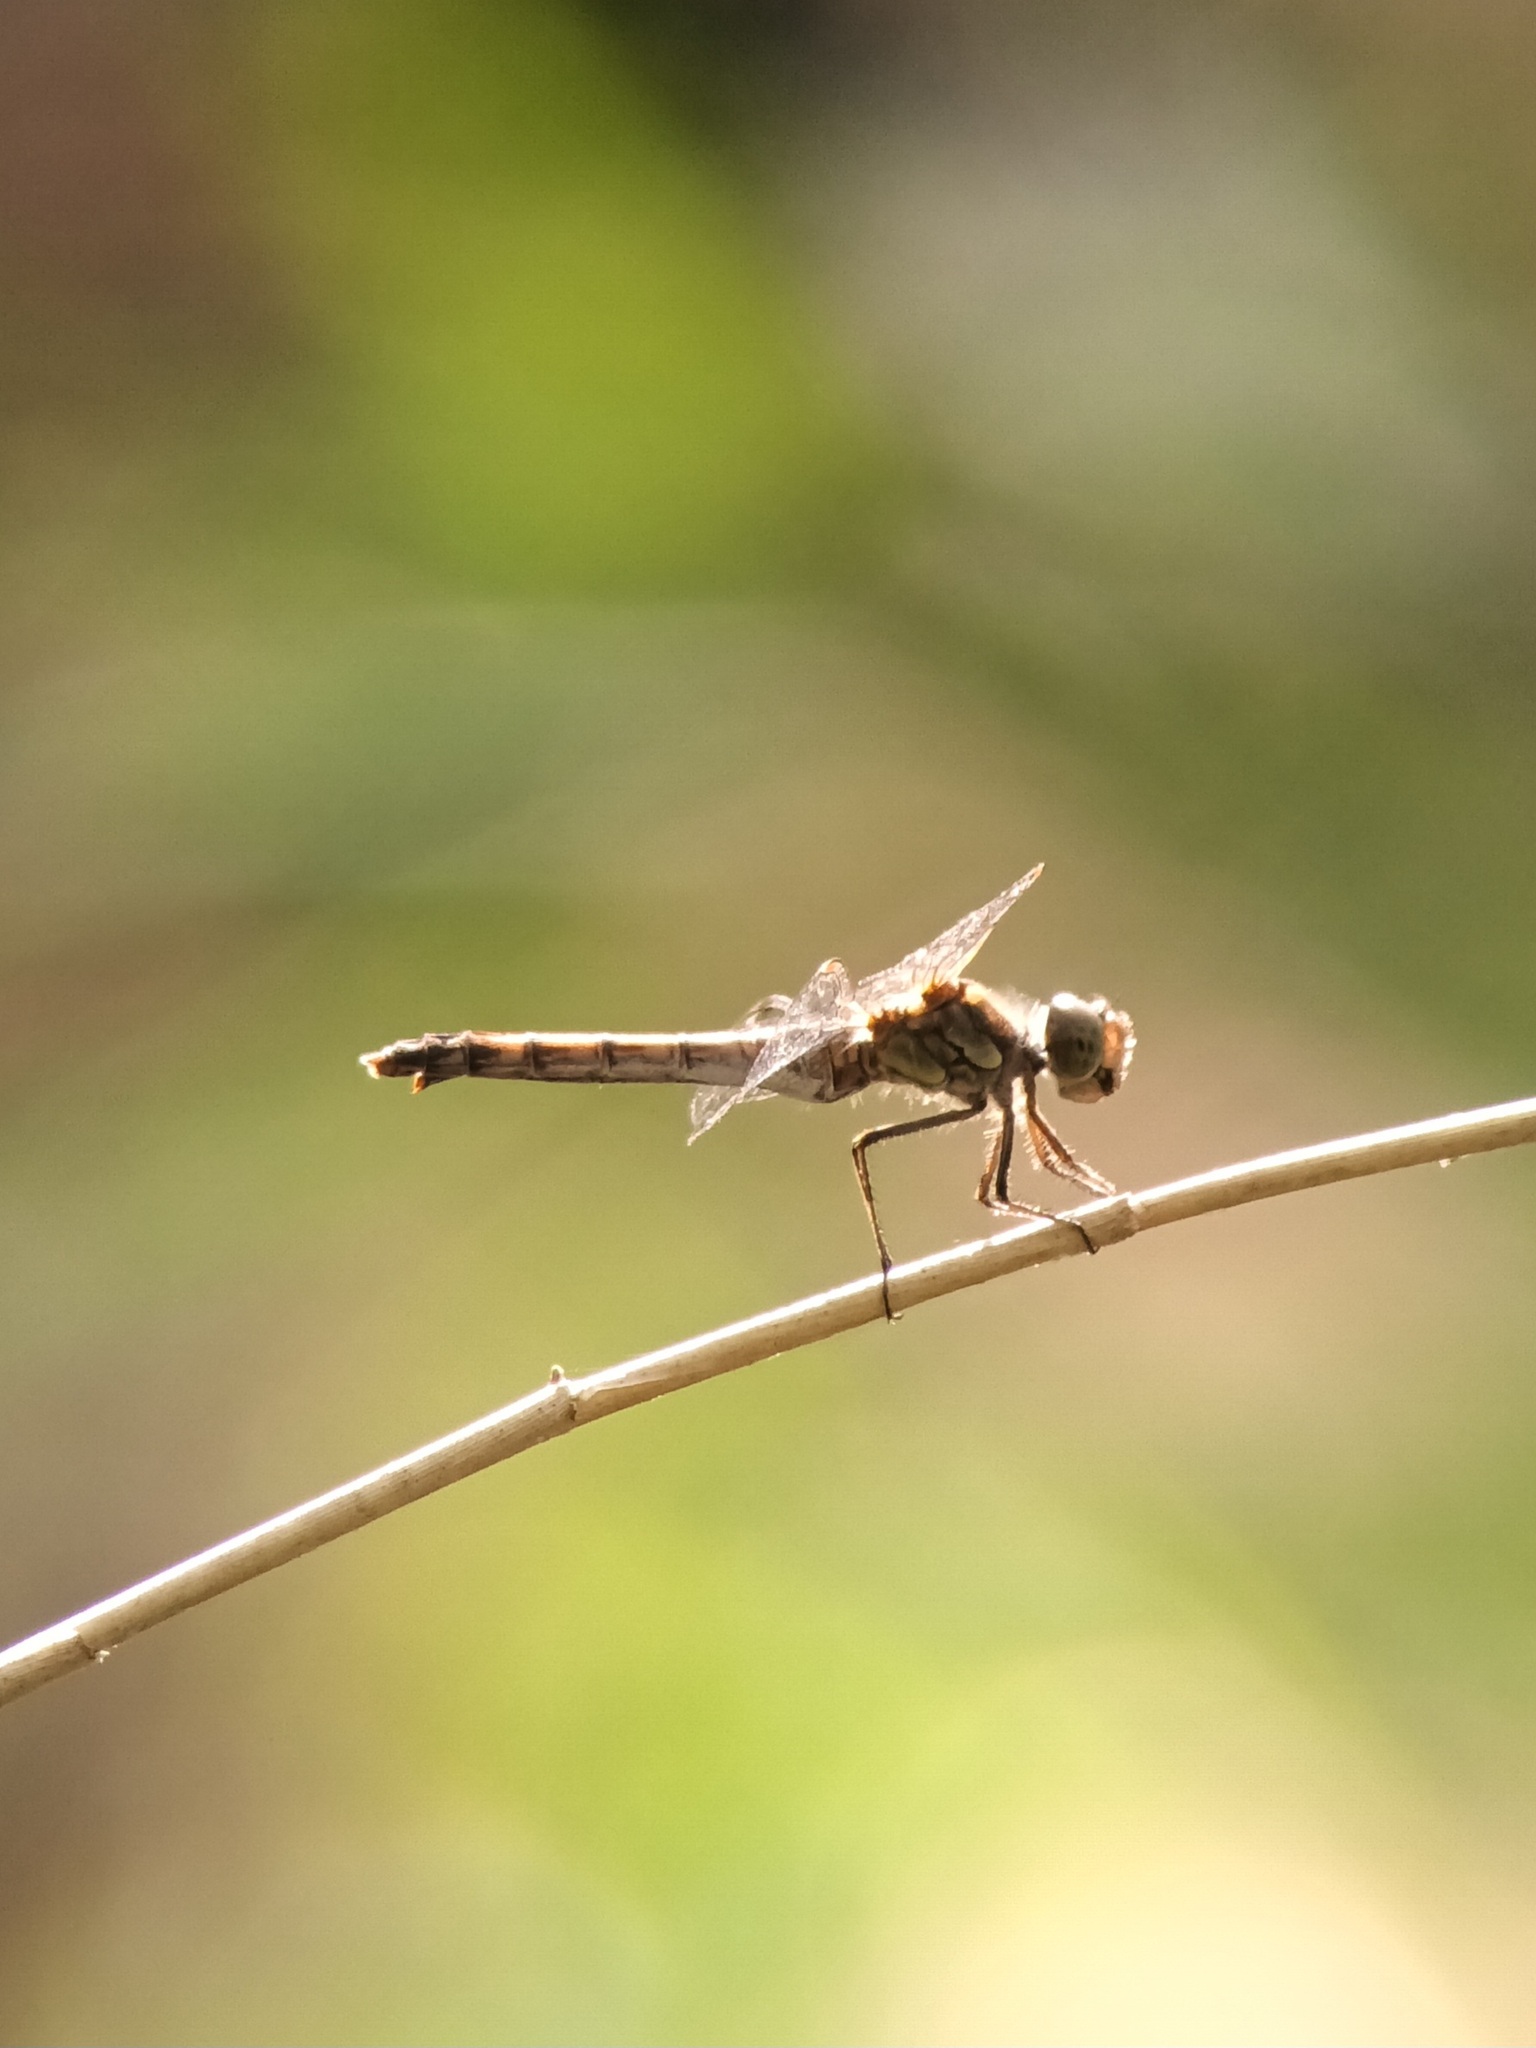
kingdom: Animalia
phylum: Arthropoda
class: Insecta
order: Odonata
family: Libellulidae
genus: Sympetrum
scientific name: Sympetrum striolatum
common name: Common darter
